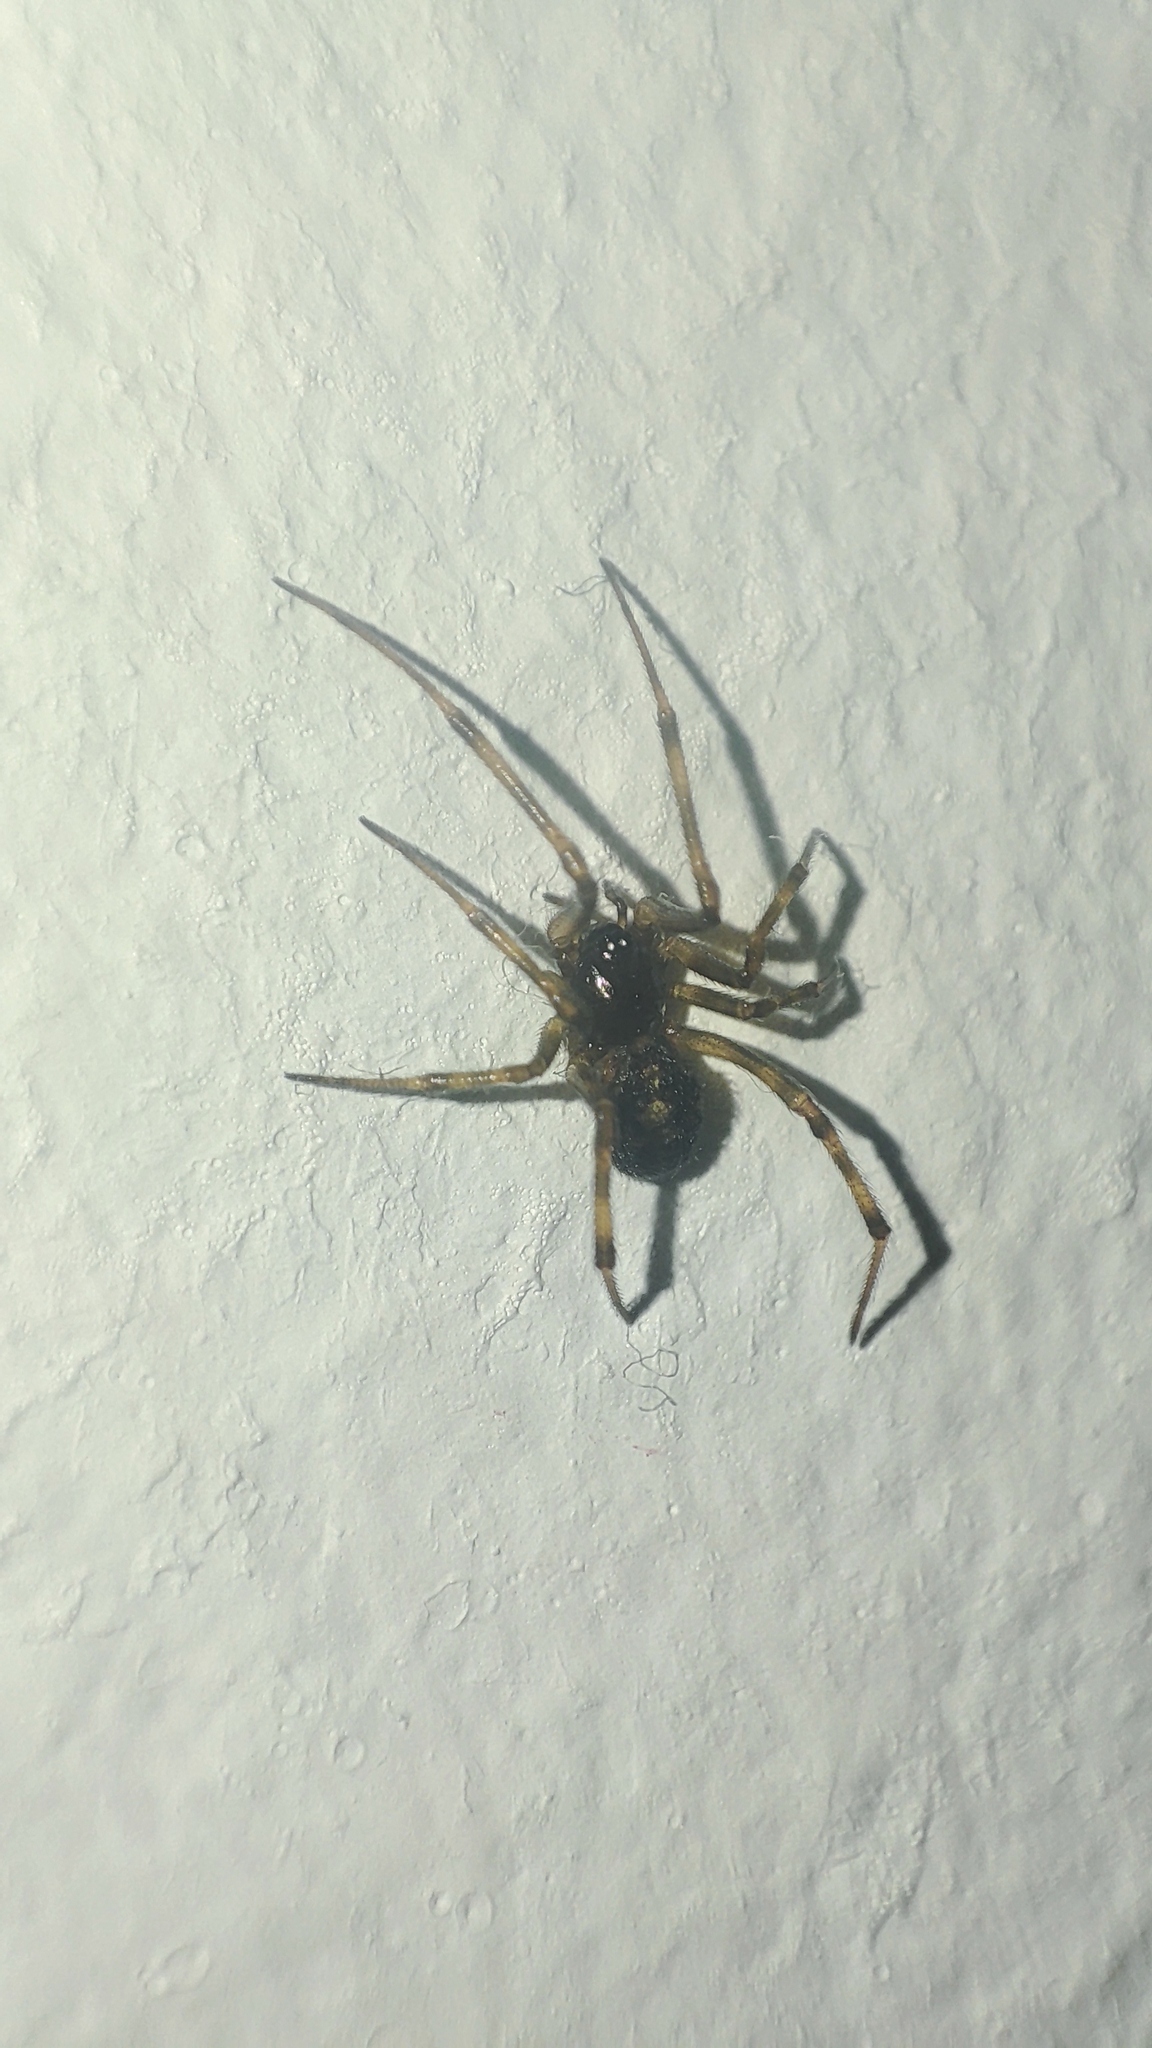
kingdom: Animalia
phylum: Arthropoda
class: Arachnida
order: Araneae
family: Theridiidae
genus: Steatoda
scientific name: Steatoda triangulosa
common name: Triangulate bud spider
